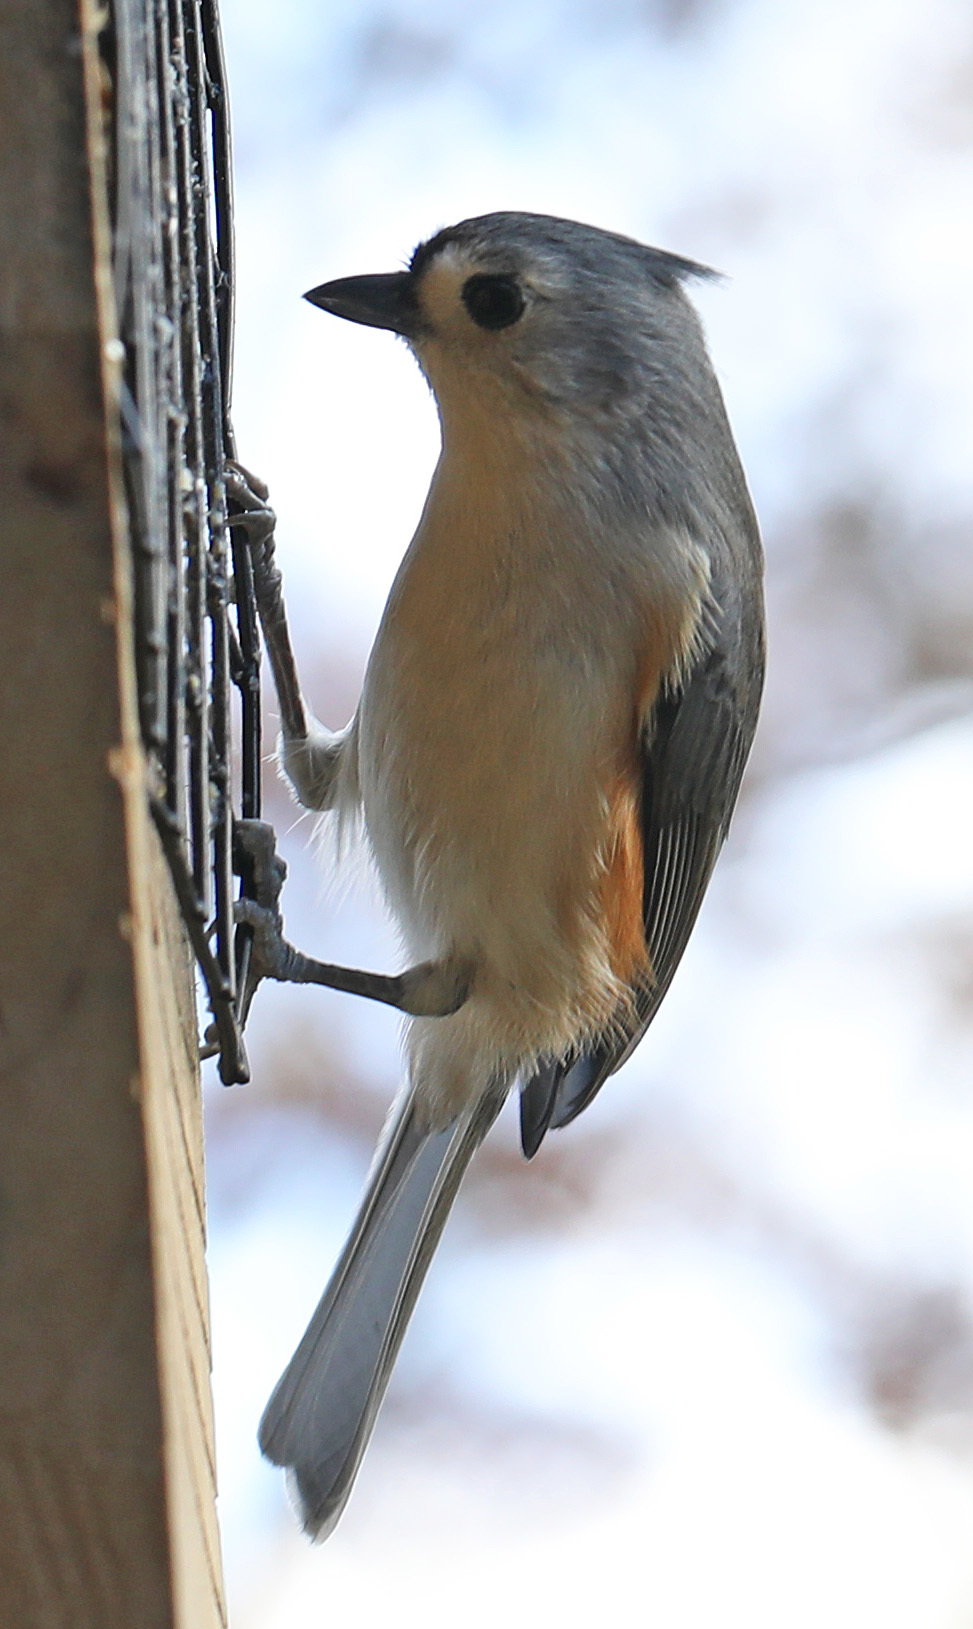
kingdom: Animalia
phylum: Chordata
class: Aves
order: Passeriformes
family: Paridae
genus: Baeolophus
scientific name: Baeolophus bicolor
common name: Tufted titmouse
